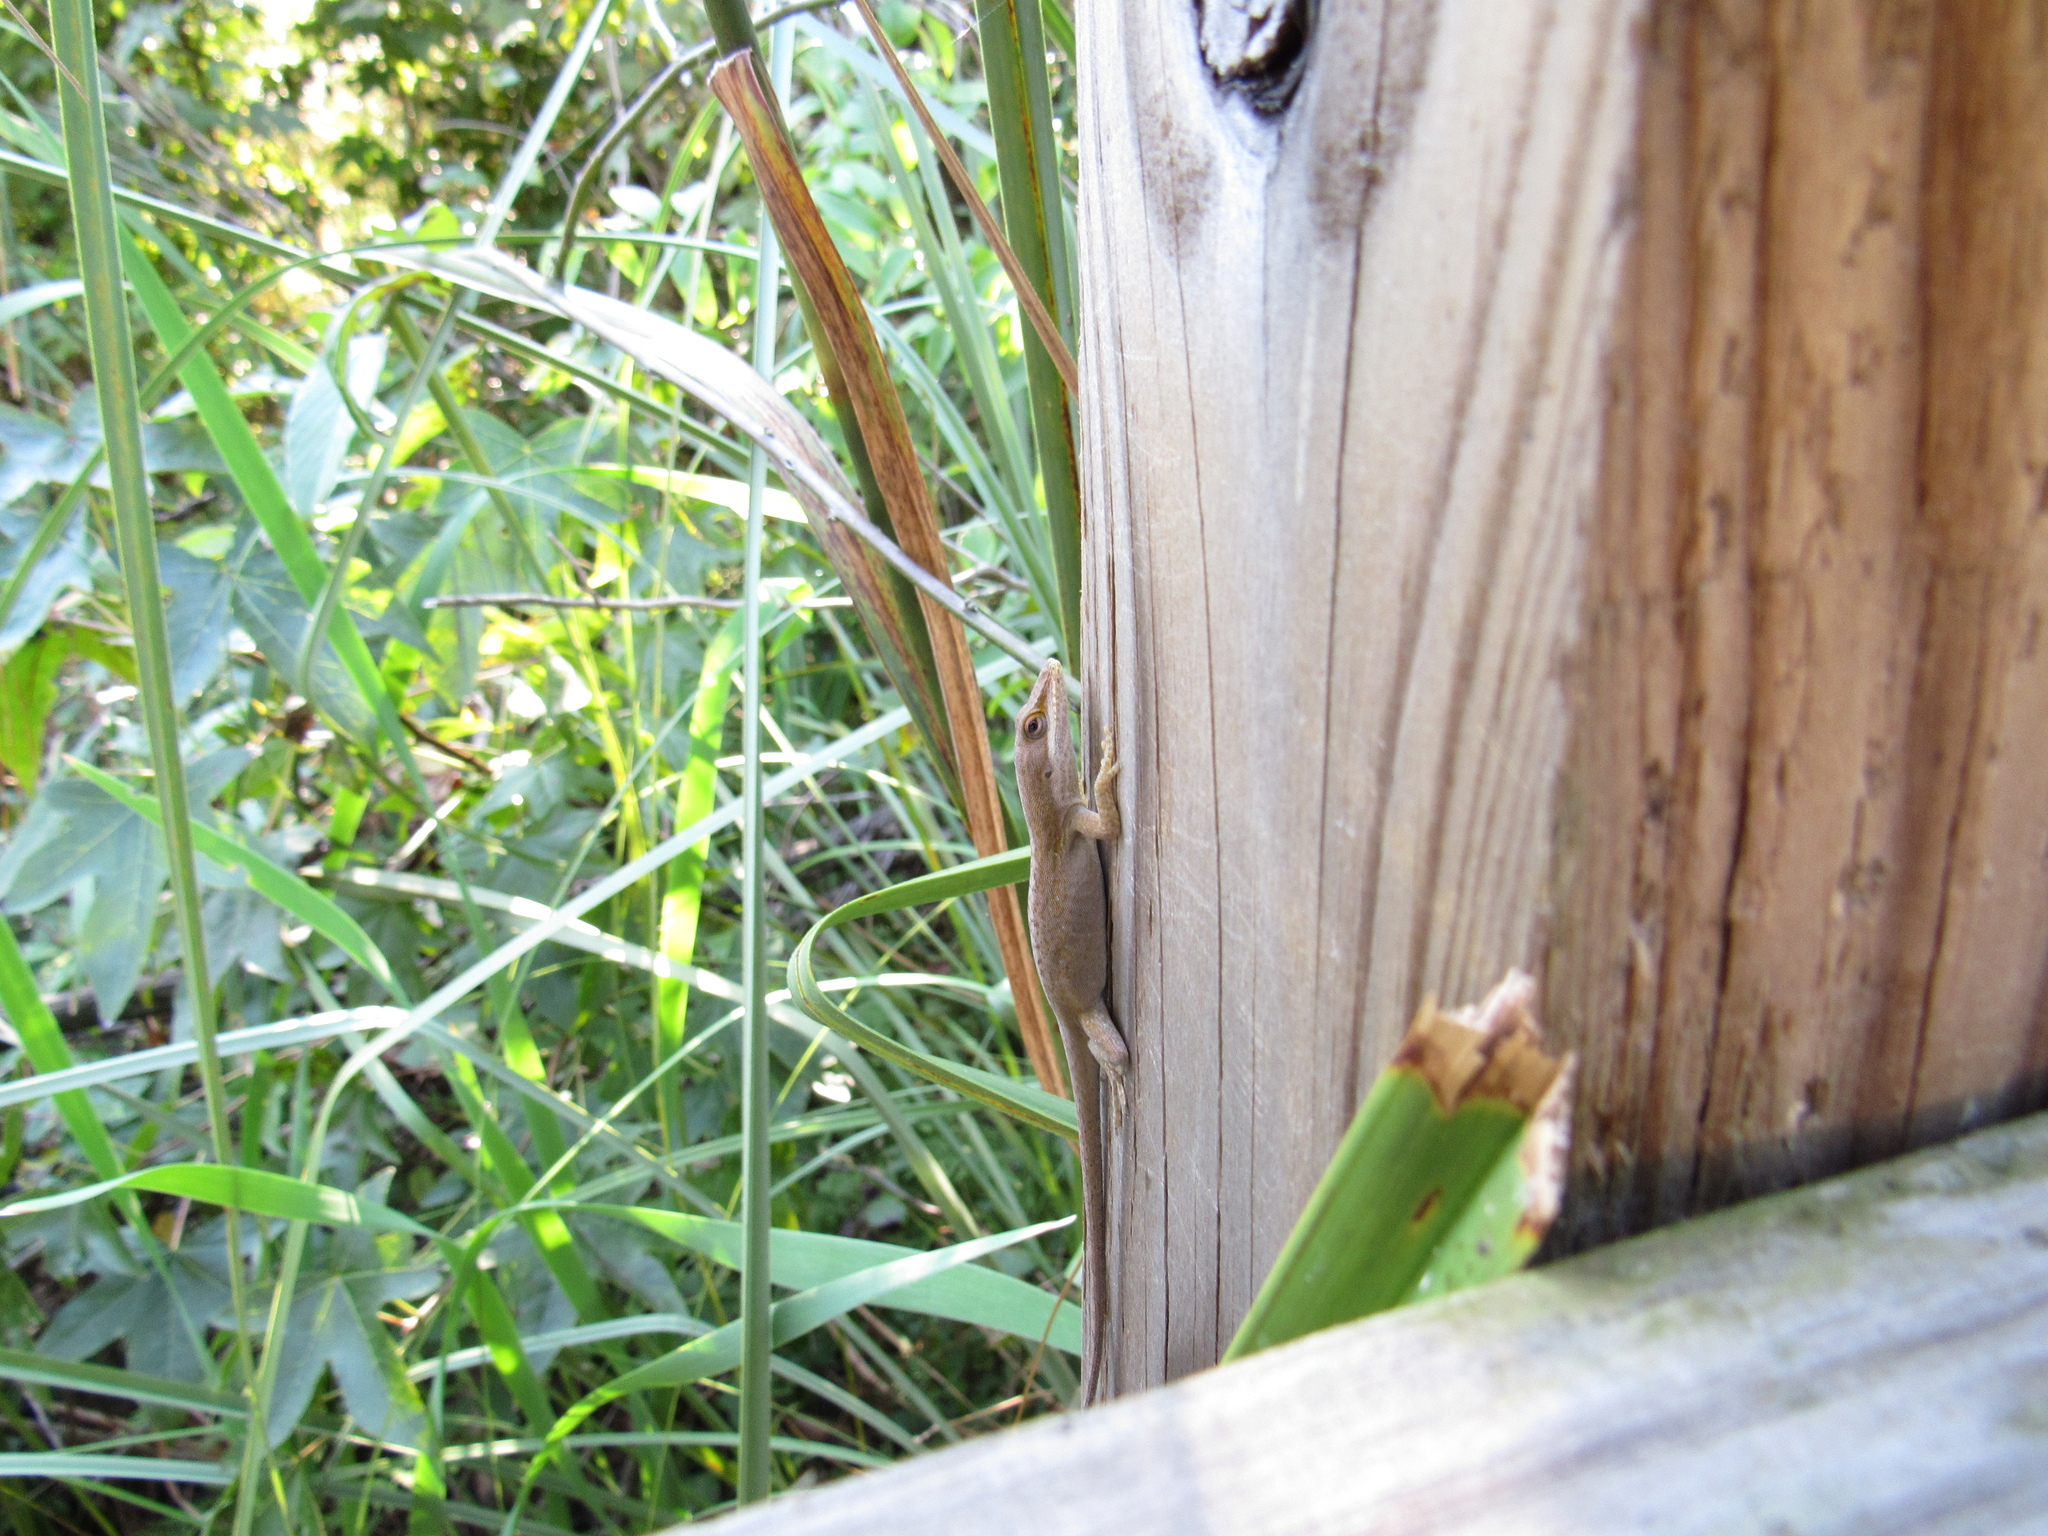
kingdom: Animalia
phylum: Chordata
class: Squamata
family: Dactyloidae
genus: Anolis
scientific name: Anolis carolinensis
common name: Green anole
